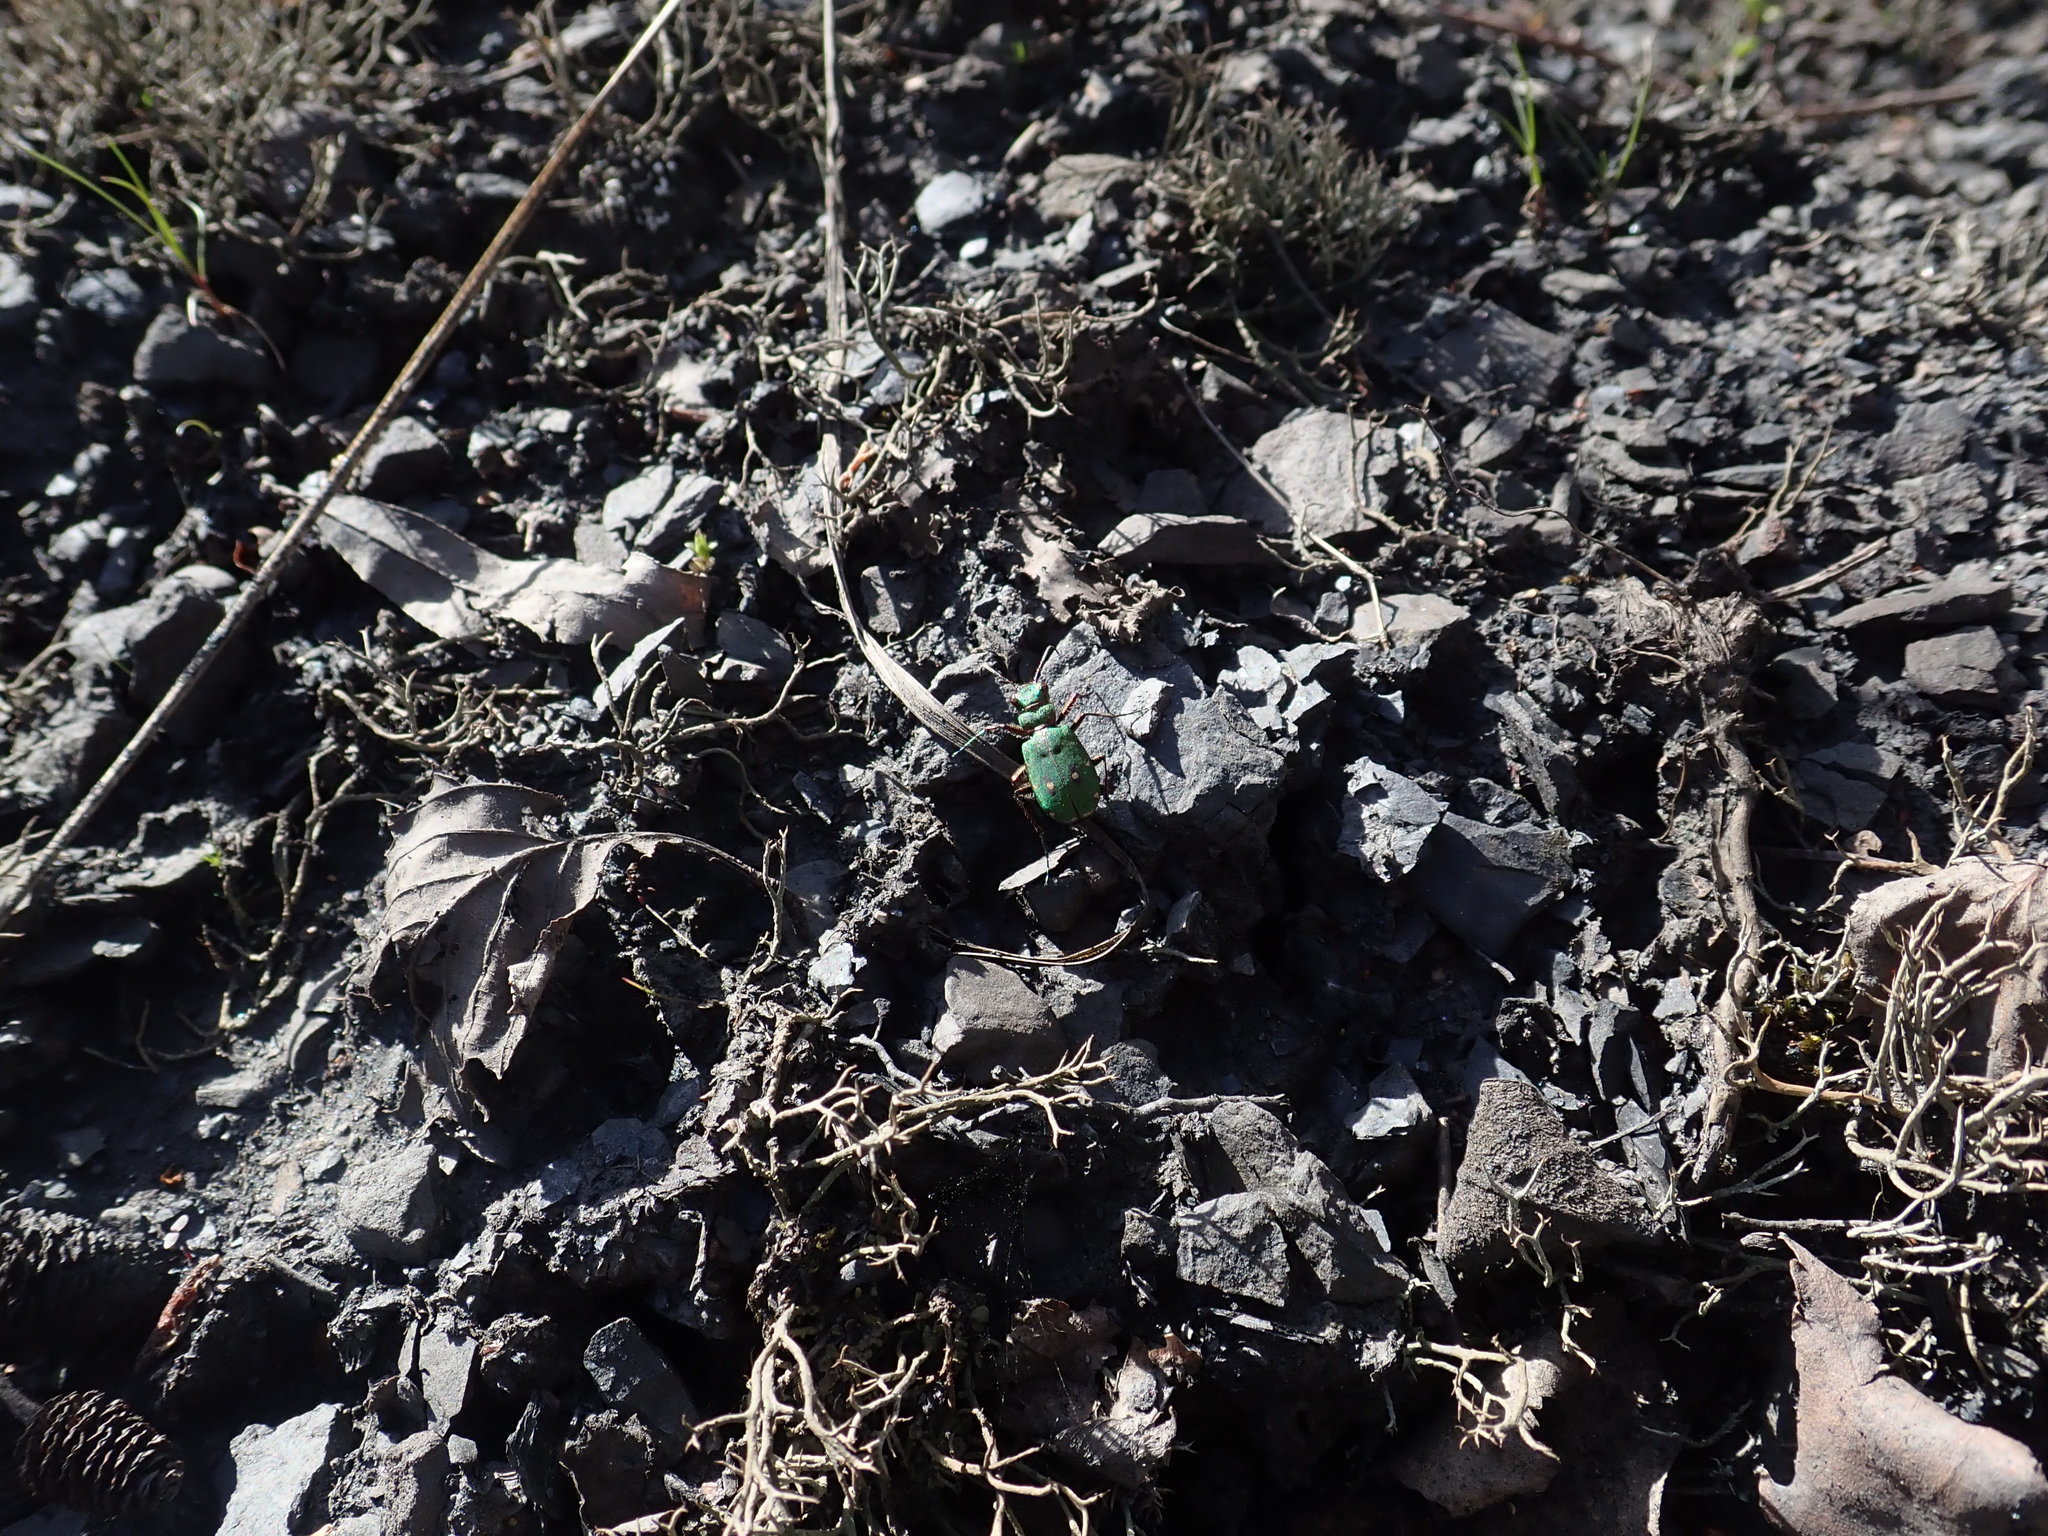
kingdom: Animalia
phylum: Arthropoda
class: Insecta
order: Coleoptera
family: Carabidae
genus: Cicindela
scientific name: Cicindela campestris
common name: Common tiger beetle
